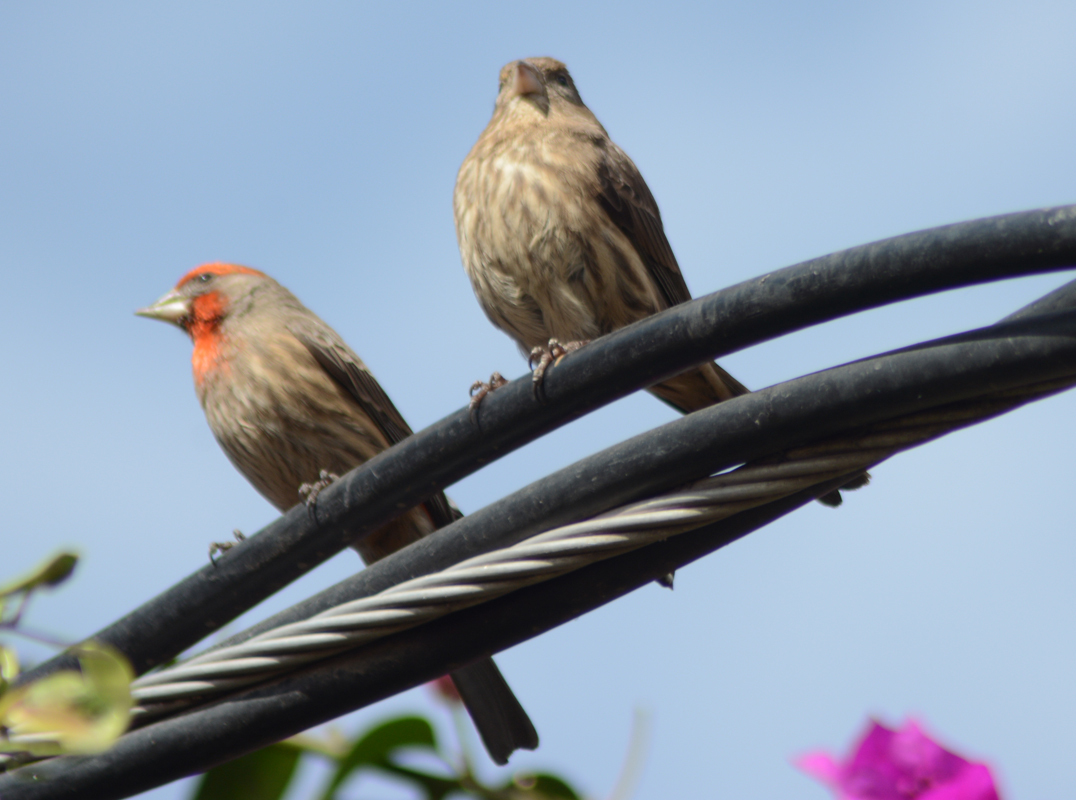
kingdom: Animalia
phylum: Chordata
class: Aves
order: Passeriformes
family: Fringillidae
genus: Haemorhous
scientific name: Haemorhous mexicanus
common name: House finch
